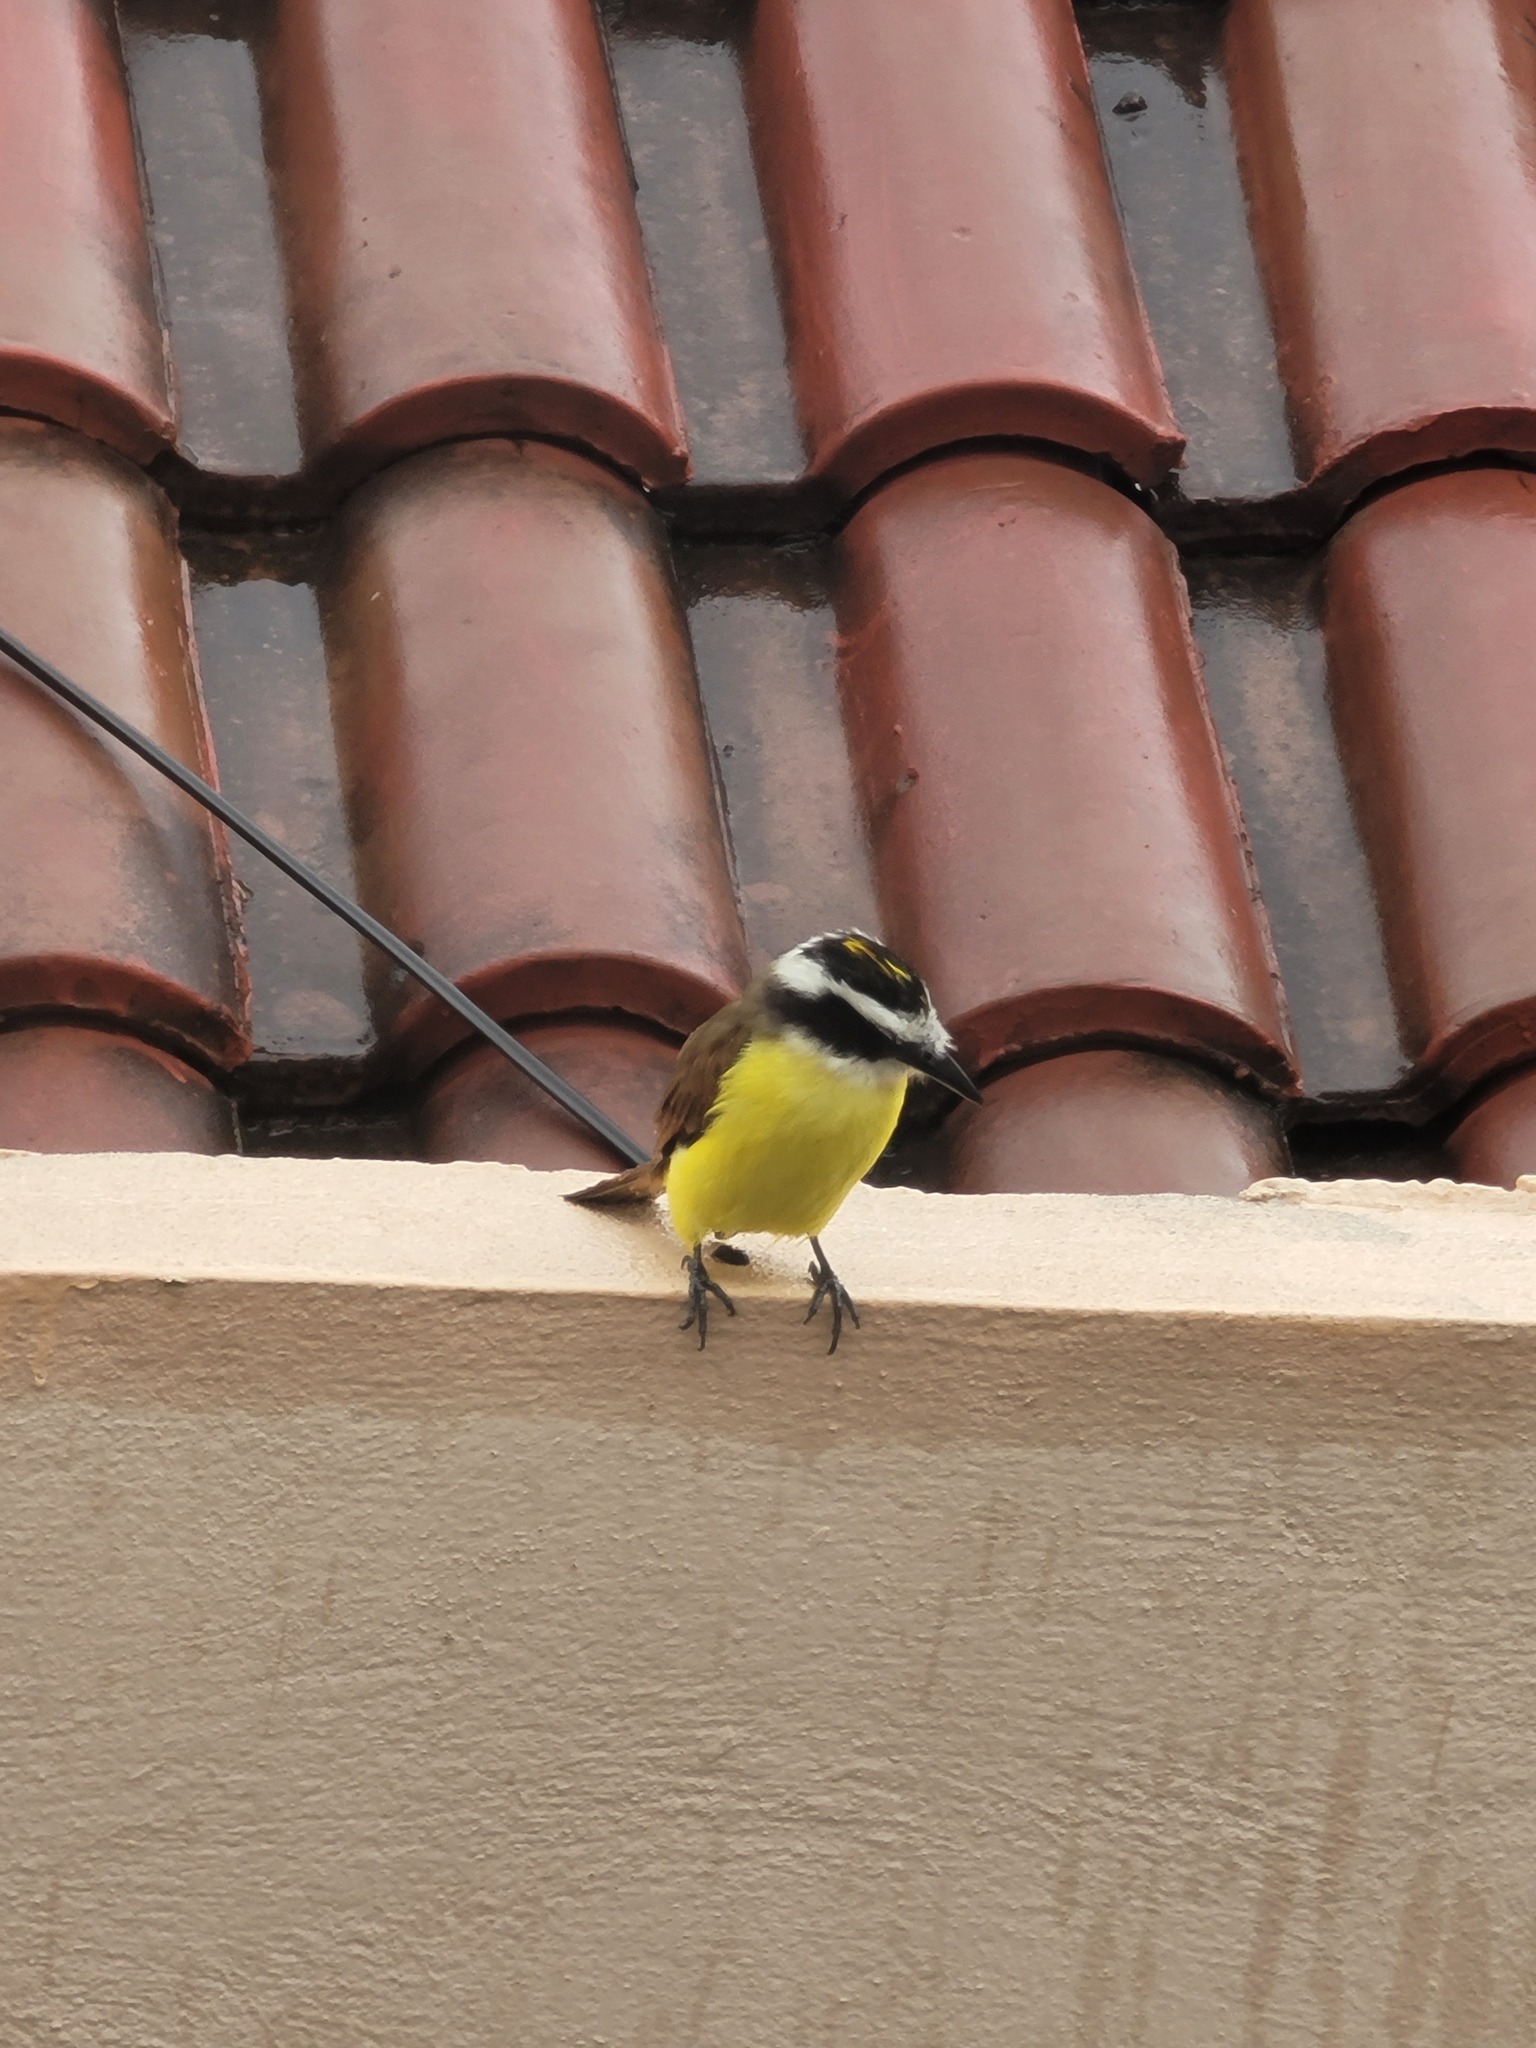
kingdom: Animalia
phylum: Chordata
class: Aves
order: Passeriformes
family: Tyrannidae
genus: Pitangus
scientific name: Pitangus sulphuratus
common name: Great kiskadee
